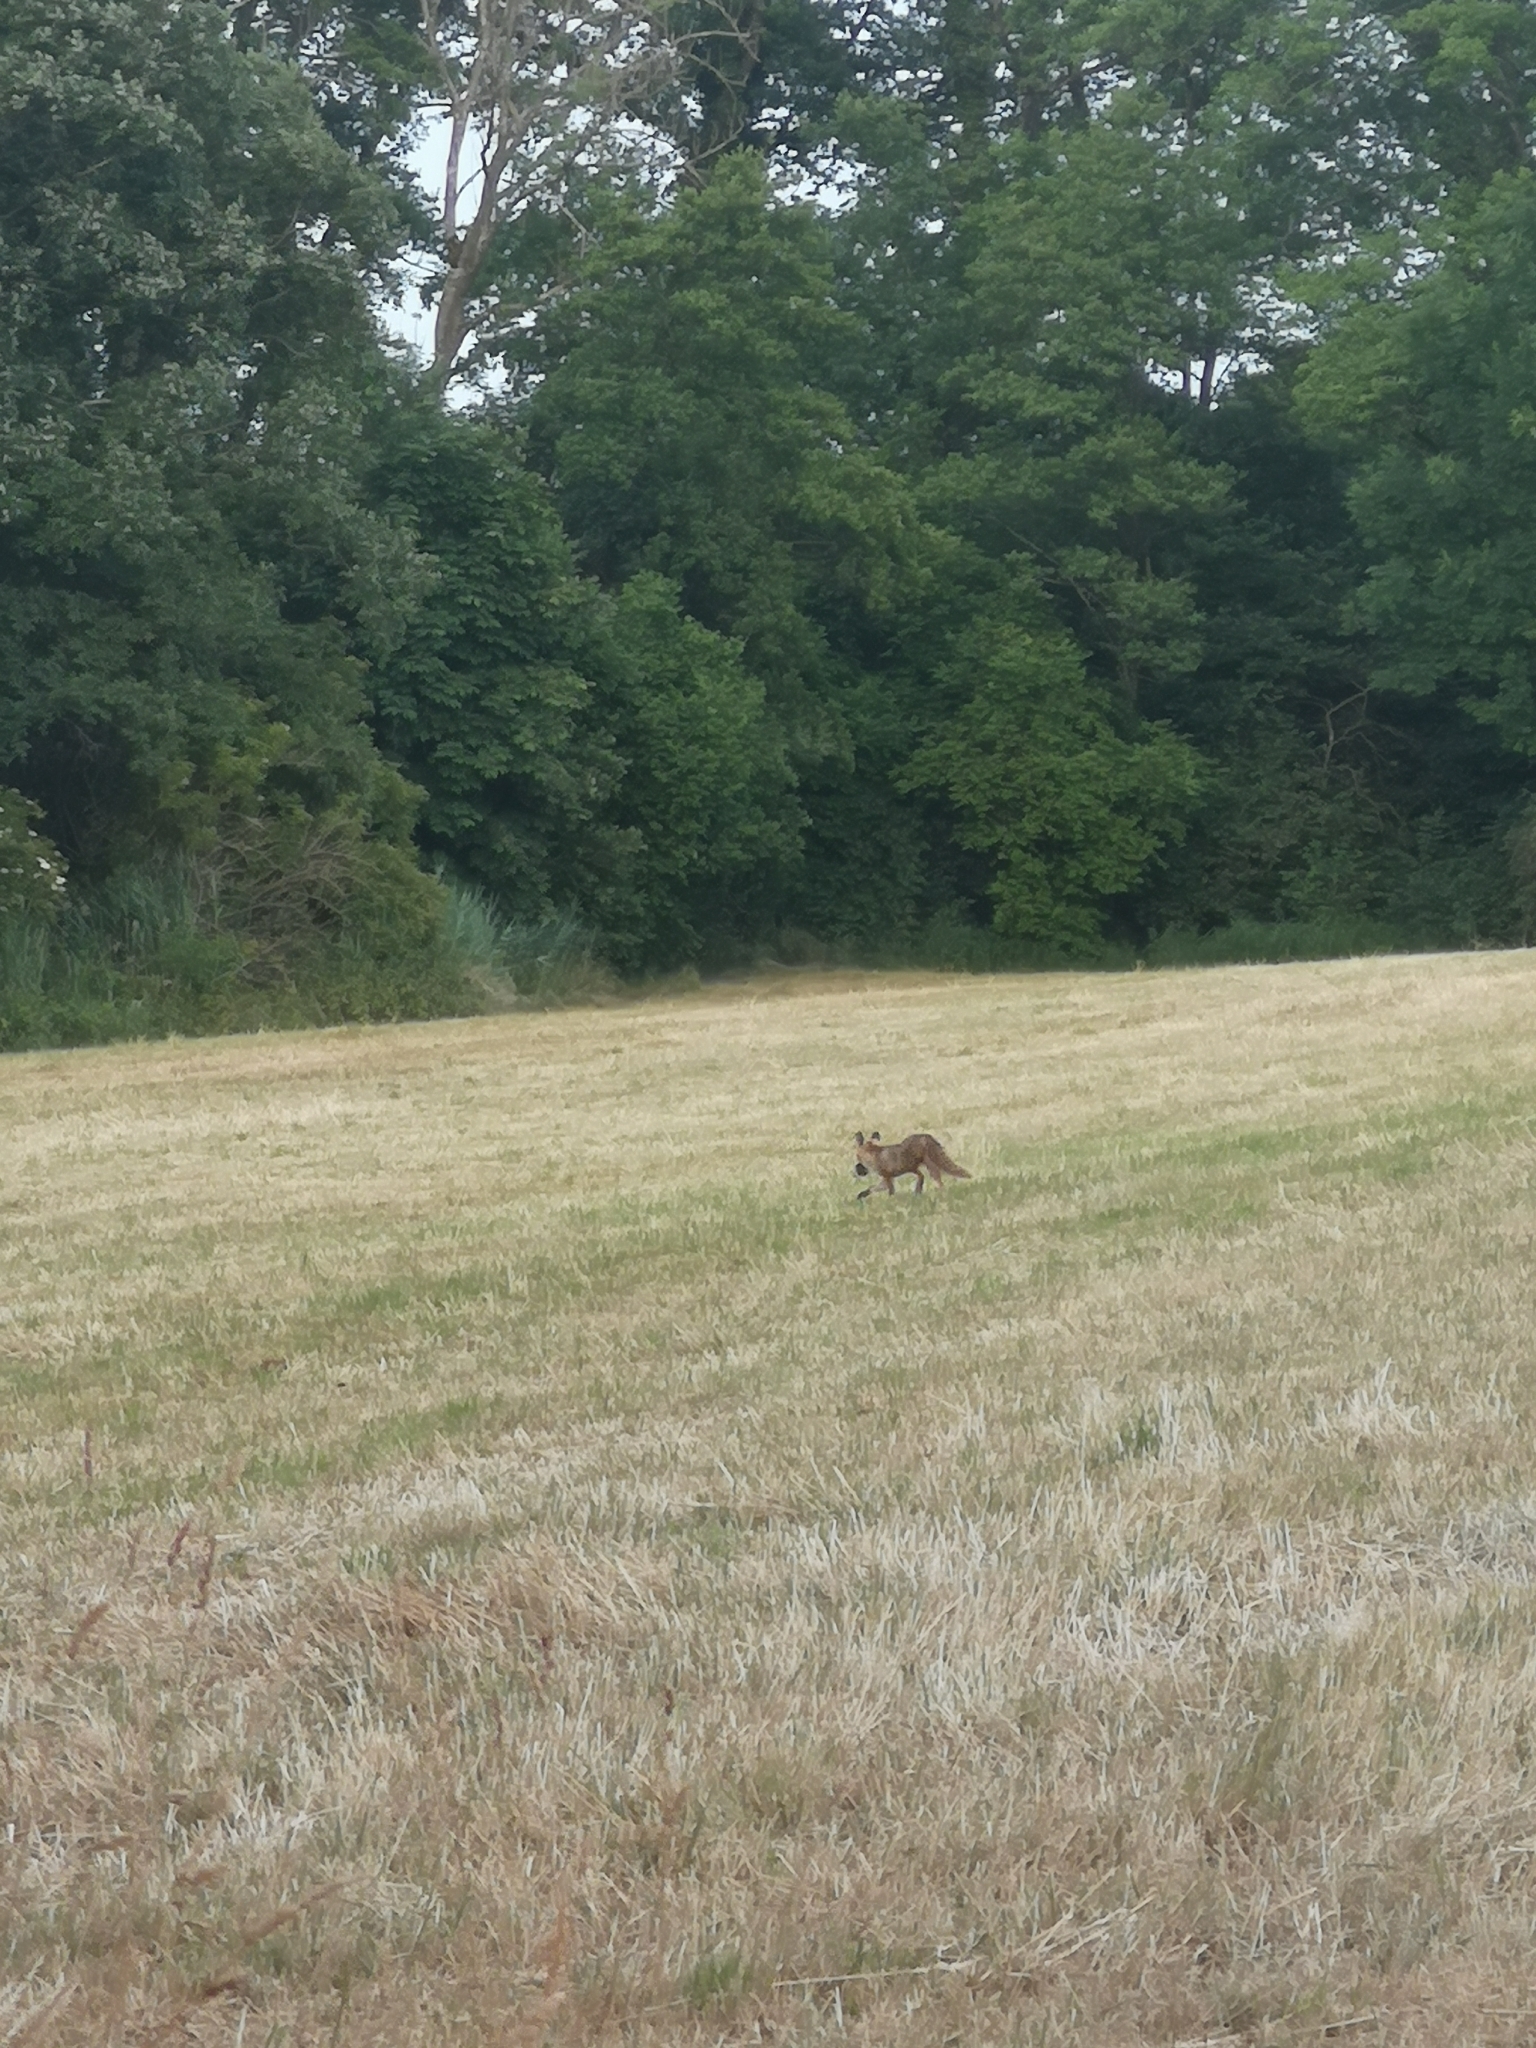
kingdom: Animalia
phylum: Chordata
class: Mammalia
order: Carnivora
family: Canidae
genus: Vulpes
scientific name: Vulpes vulpes
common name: Red fox
